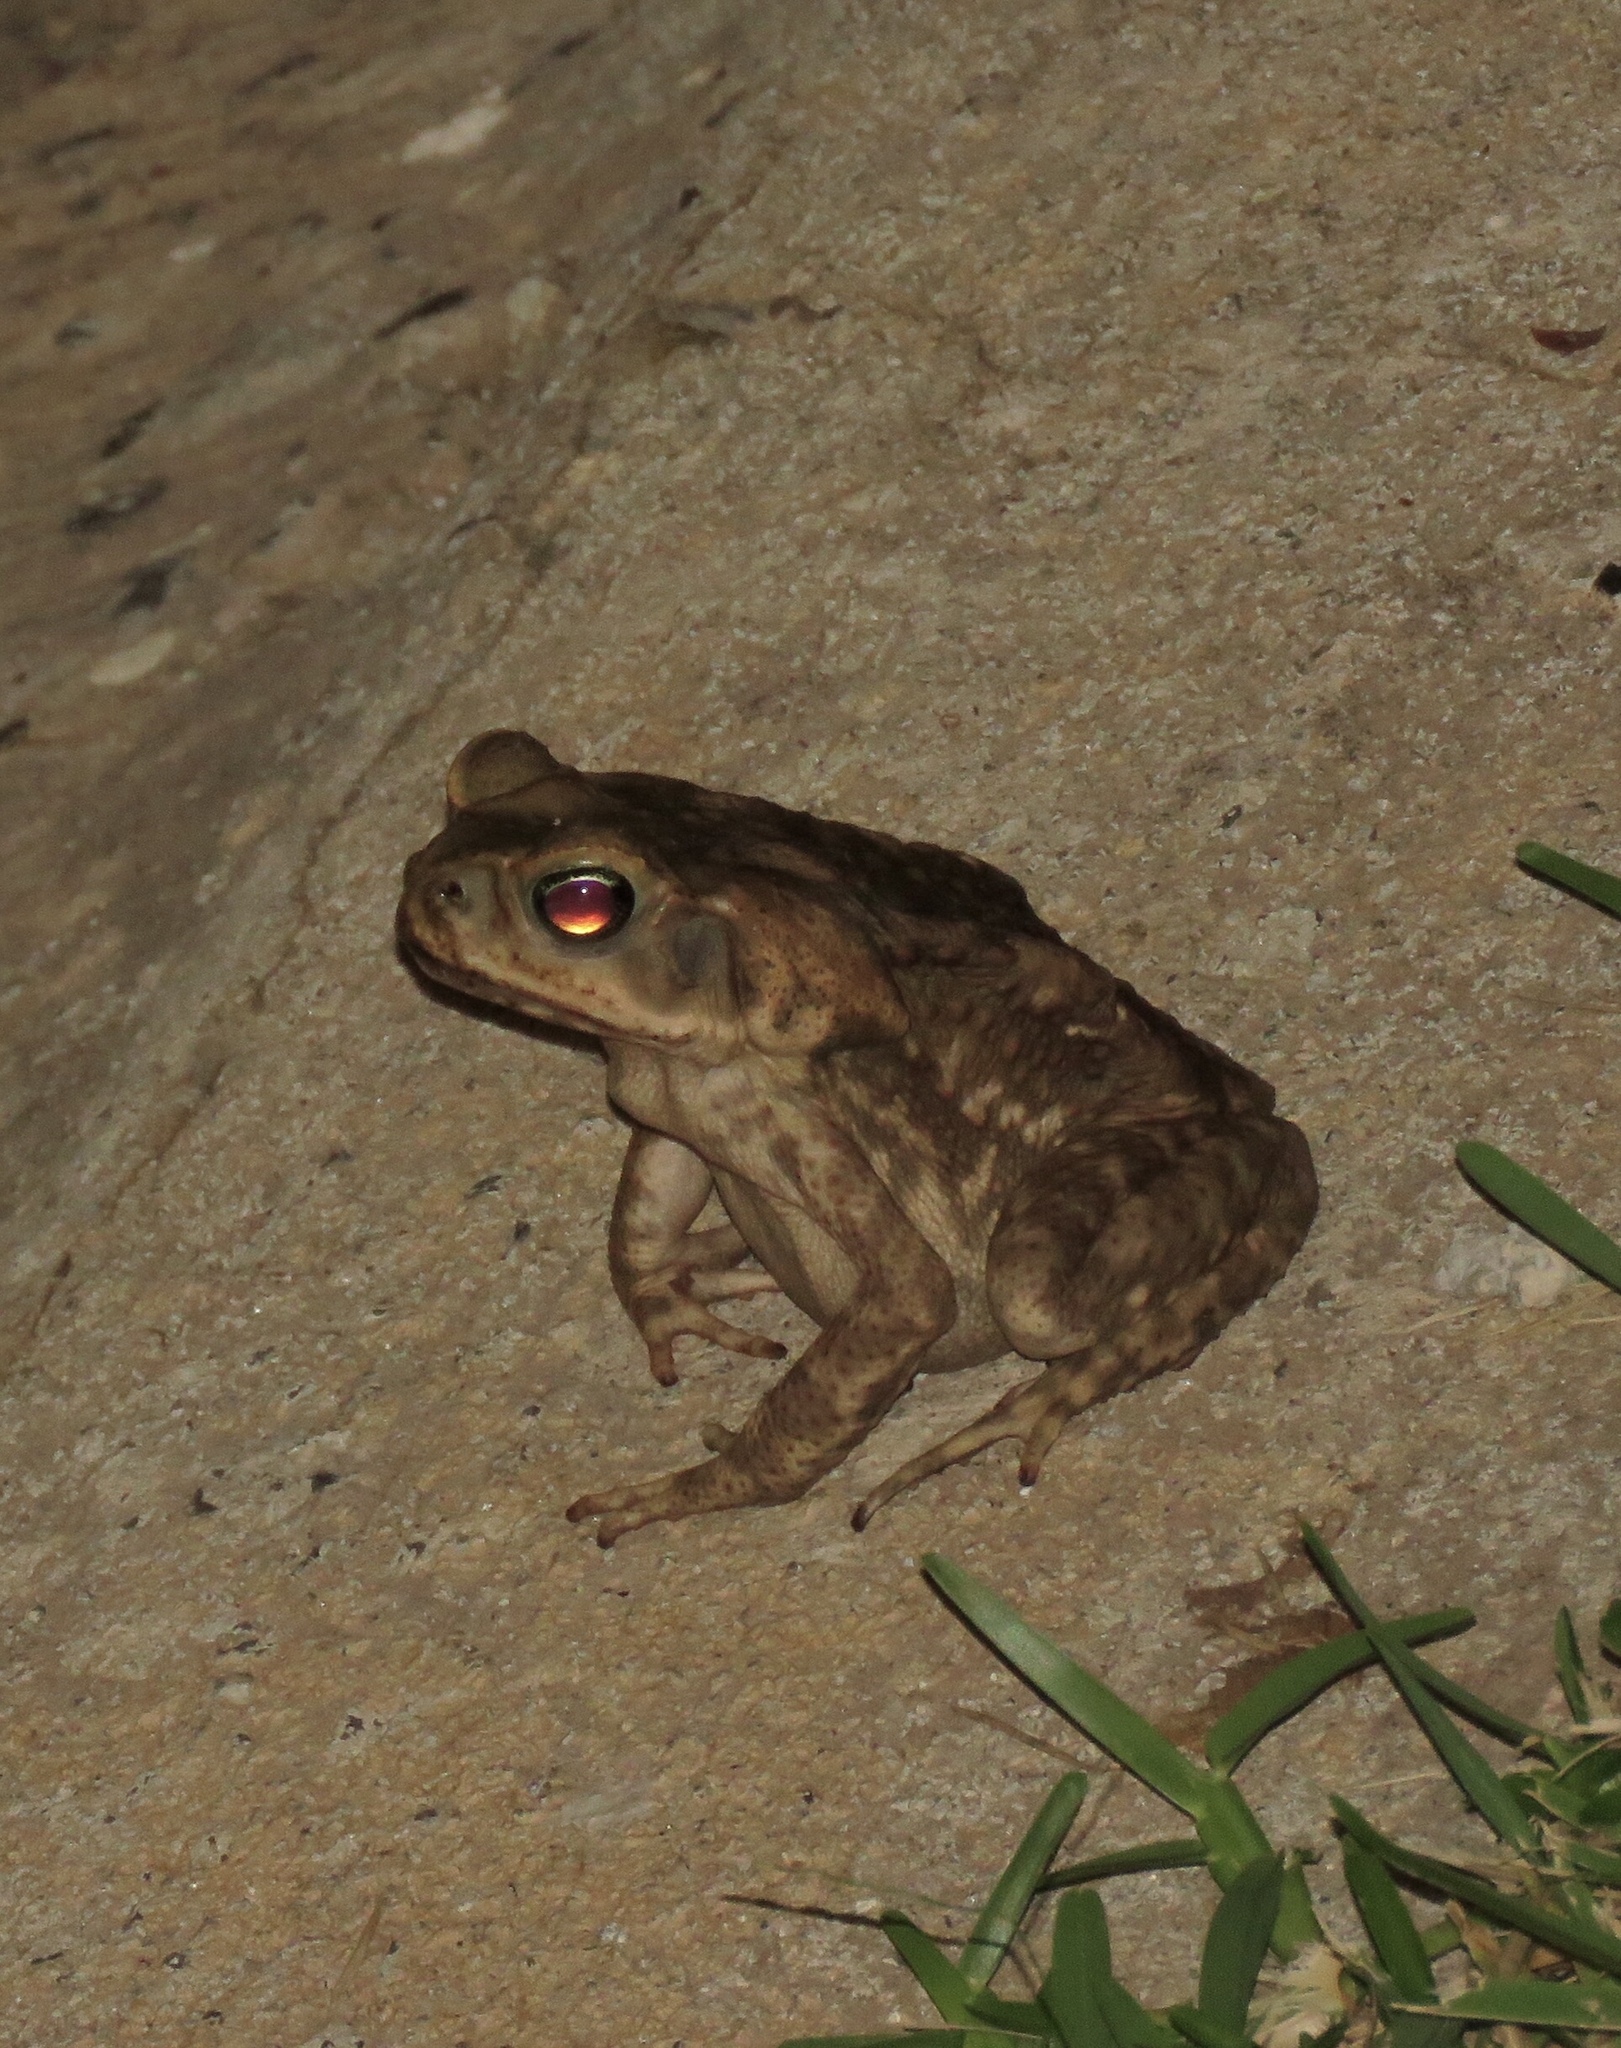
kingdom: Animalia
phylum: Chordata
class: Amphibia
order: Anura
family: Bufonidae
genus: Rhinella
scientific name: Rhinella horribilis
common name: Mesoamerican cane toad
